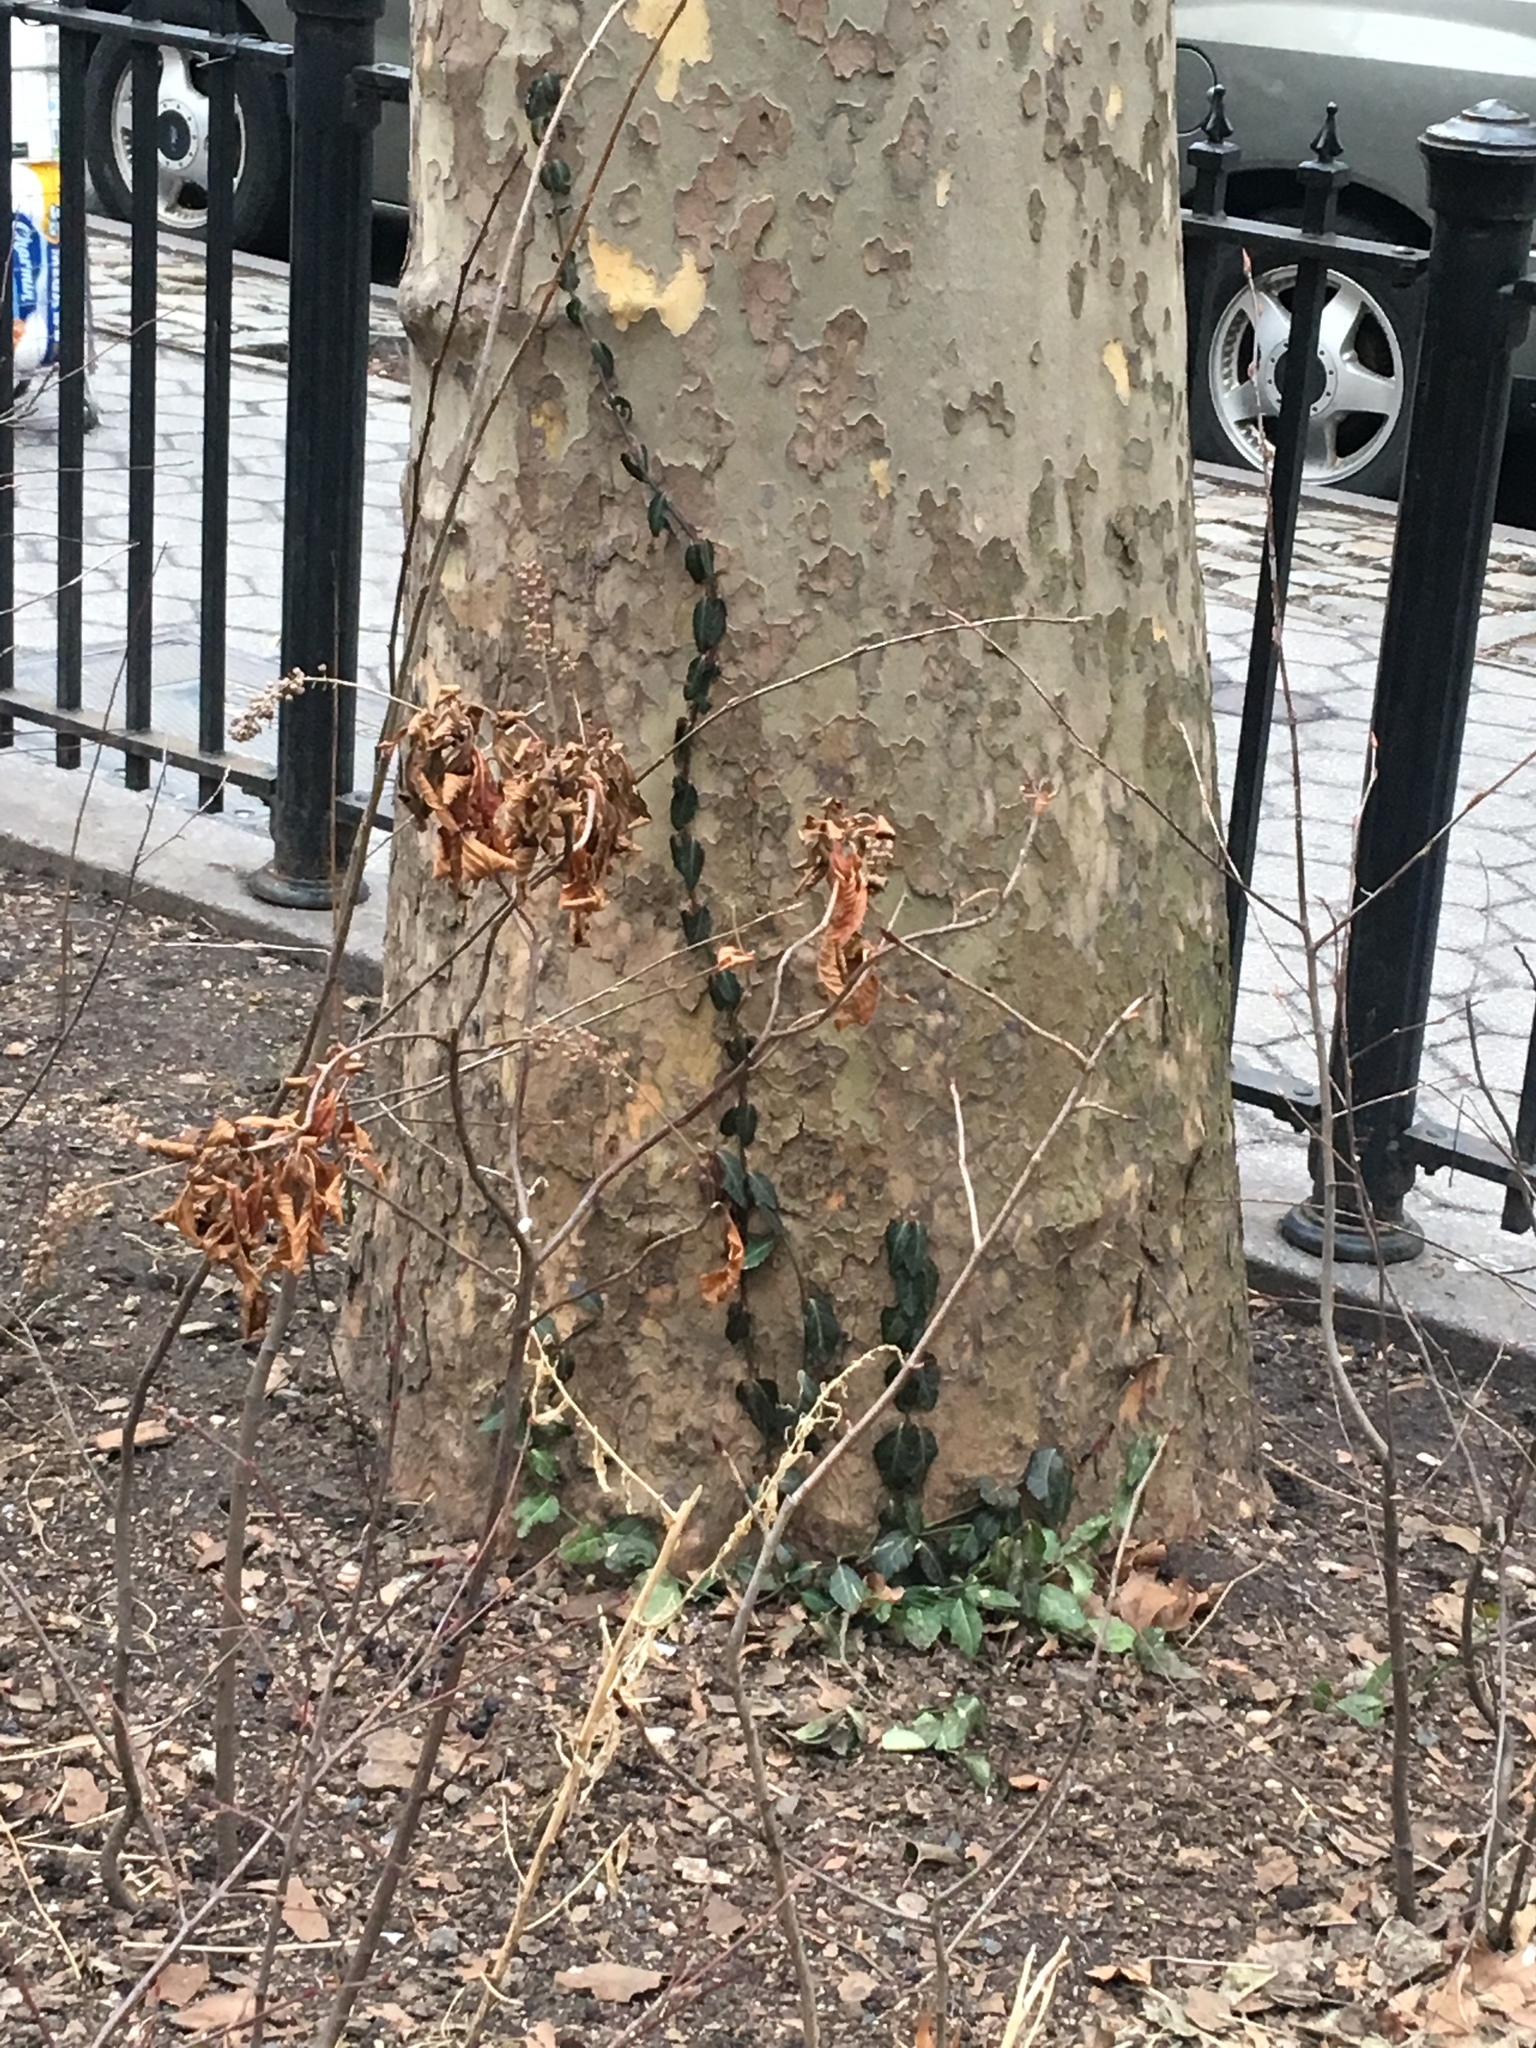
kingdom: Plantae
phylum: Tracheophyta
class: Magnoliopsida
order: Celastrales
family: Celastraceae
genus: Euonymus
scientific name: Euonymus fortunei
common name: Climbing euonymus
